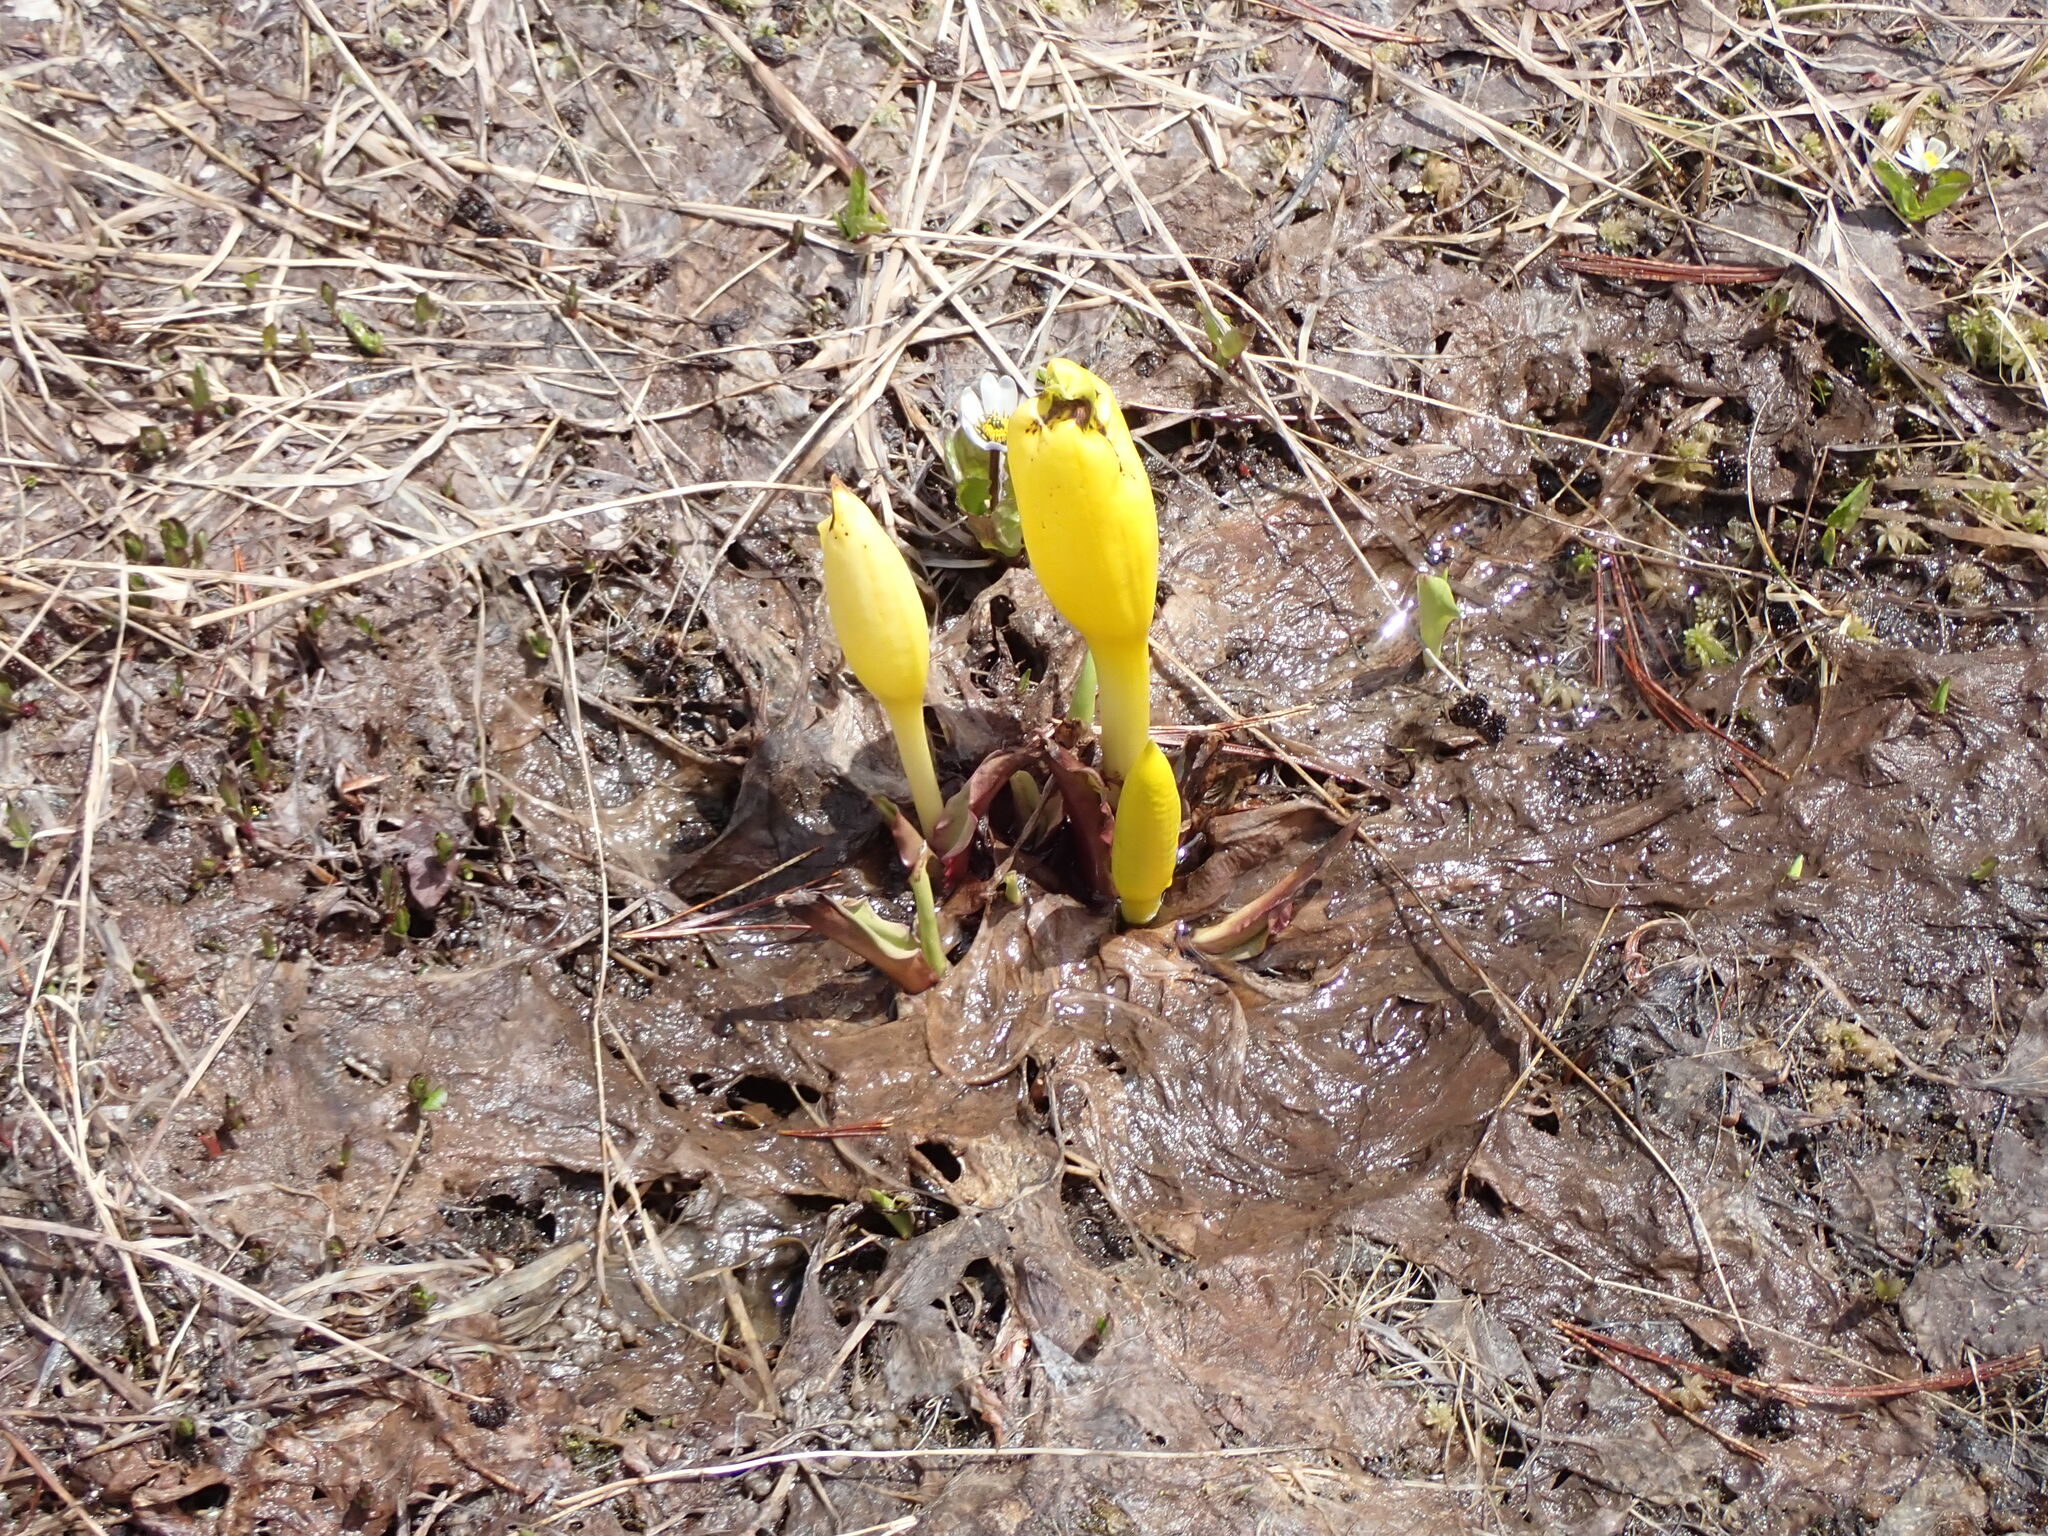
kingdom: Plantae
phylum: Tracheophyta
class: Liliopsida
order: Alismatales
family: Araceae
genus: Lysichiton
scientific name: Lysichiton americanus
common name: American skunk cabbage
